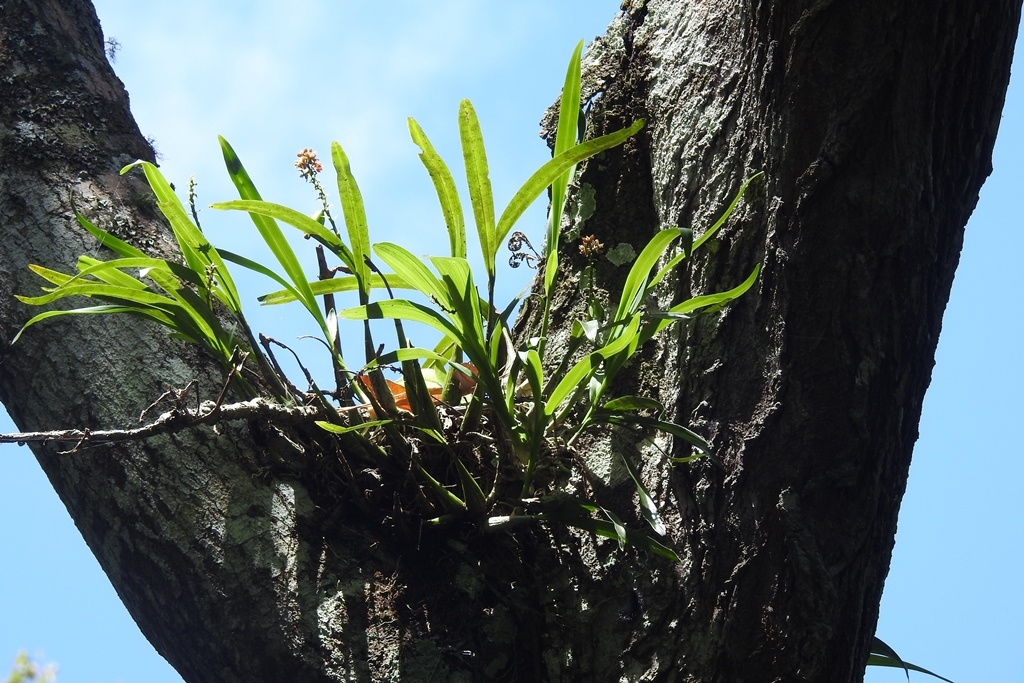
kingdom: Plantae
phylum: Tracheophyta
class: Liliopsida
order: Asparagales
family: Orchidaceae
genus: Prosthechea
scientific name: Prosthechea ochracea
